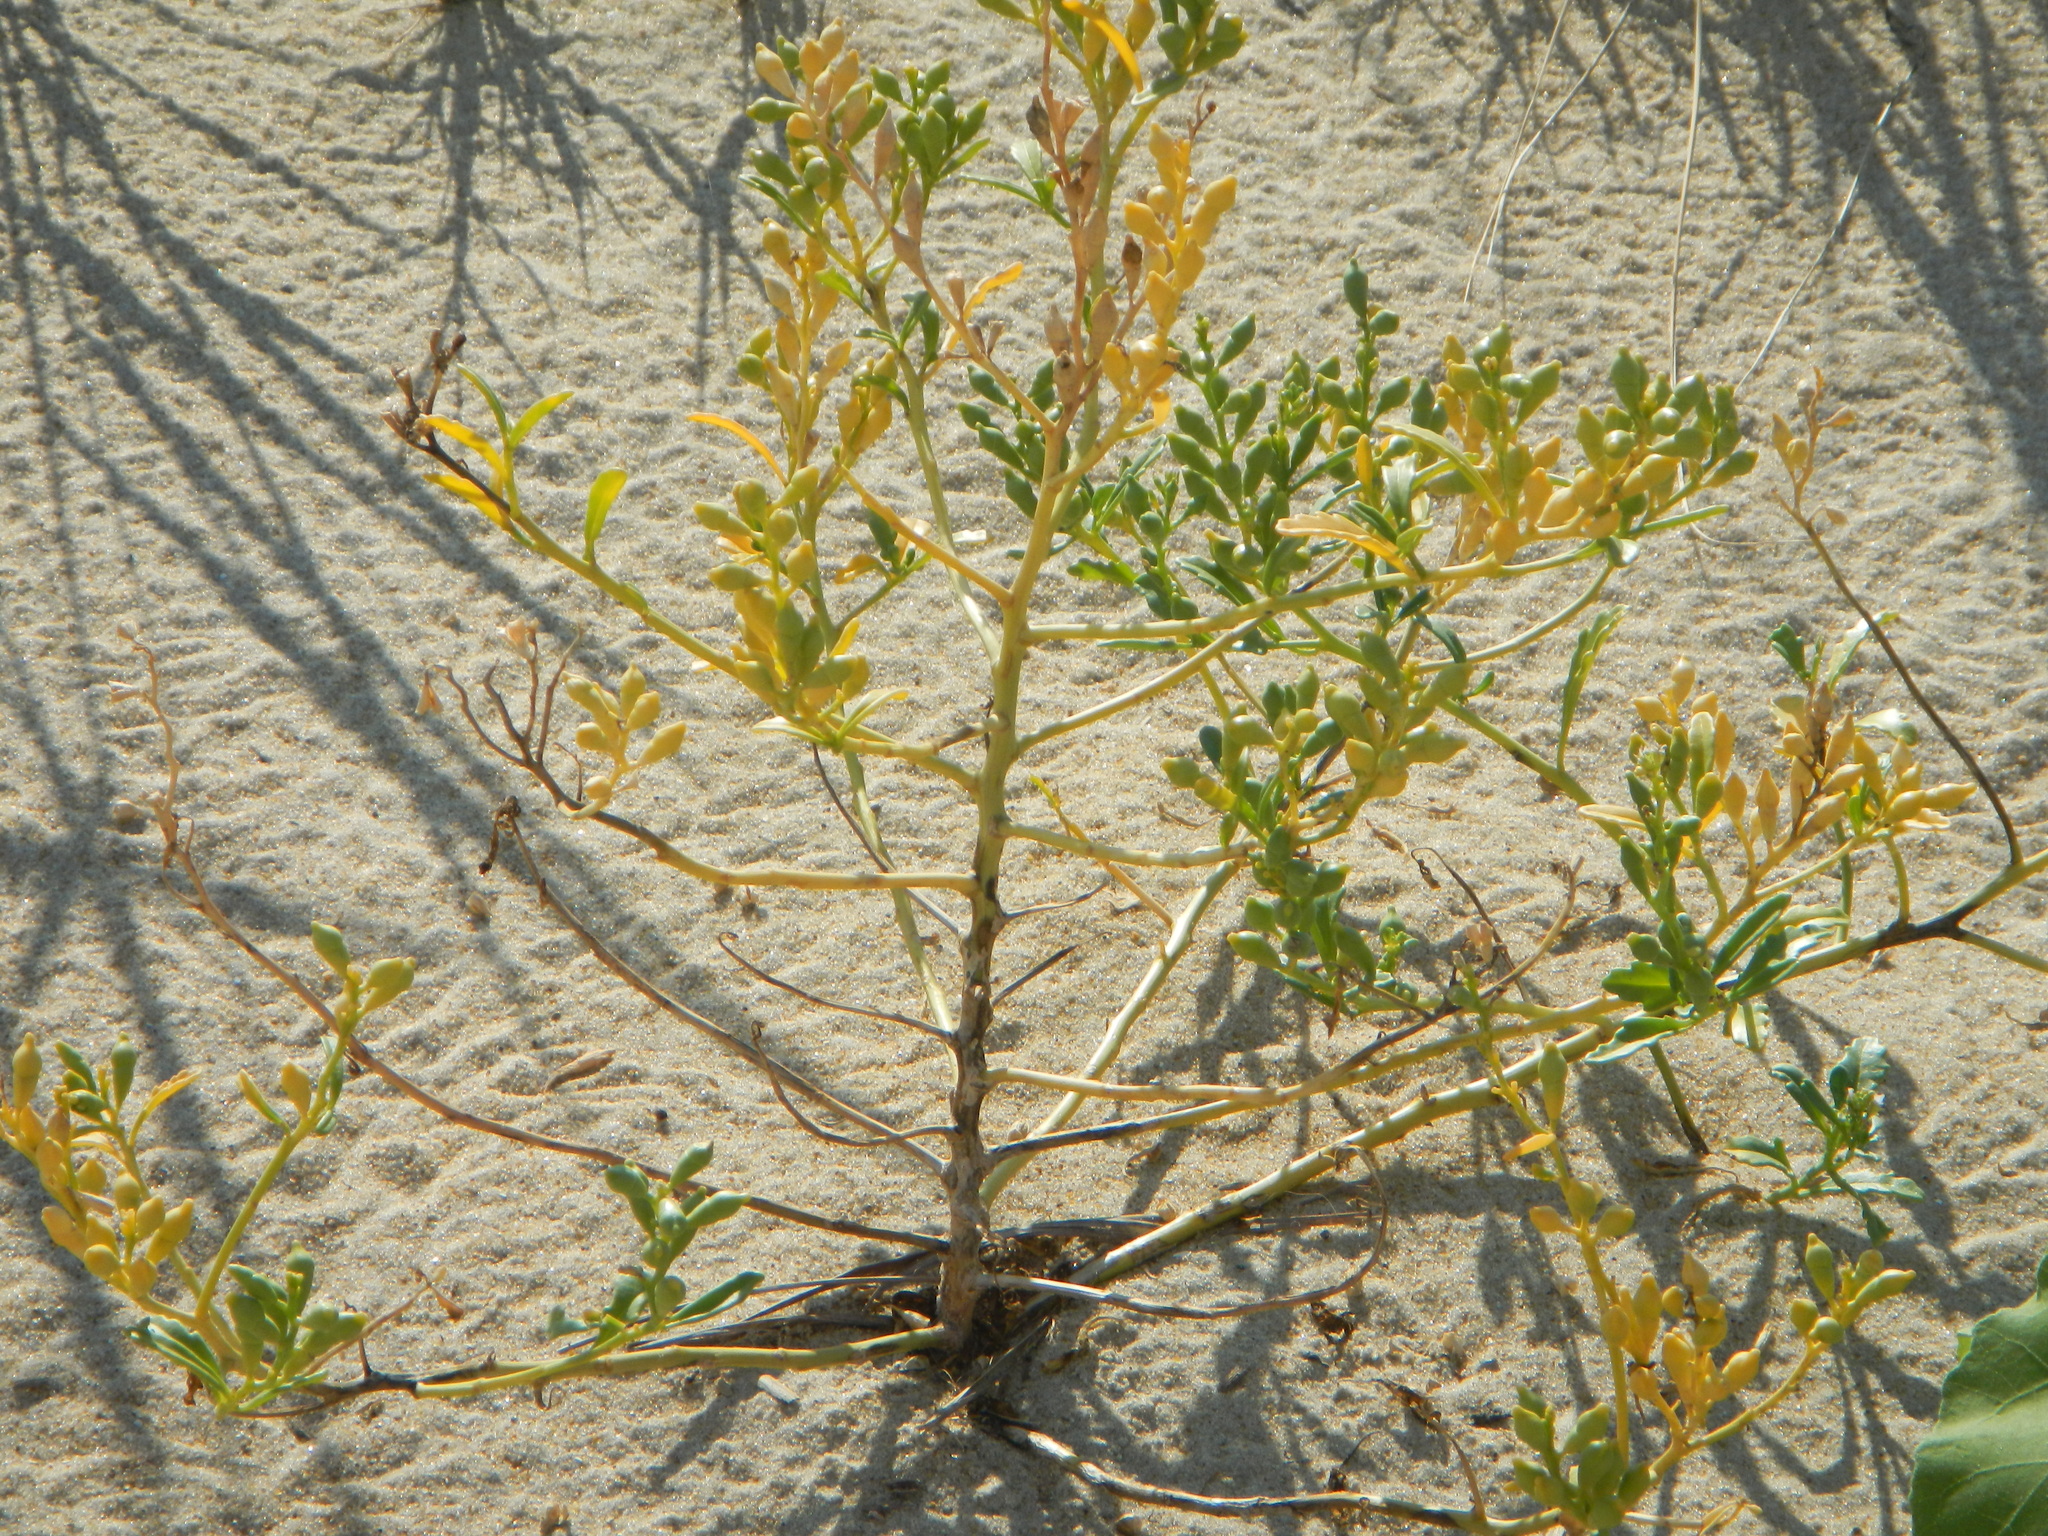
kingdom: Plantae
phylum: Tracheophyta
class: Magnoliopsida
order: Brassicales
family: Brassicaceae
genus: Cakile
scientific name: Cakile edentula
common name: American sea rocket
